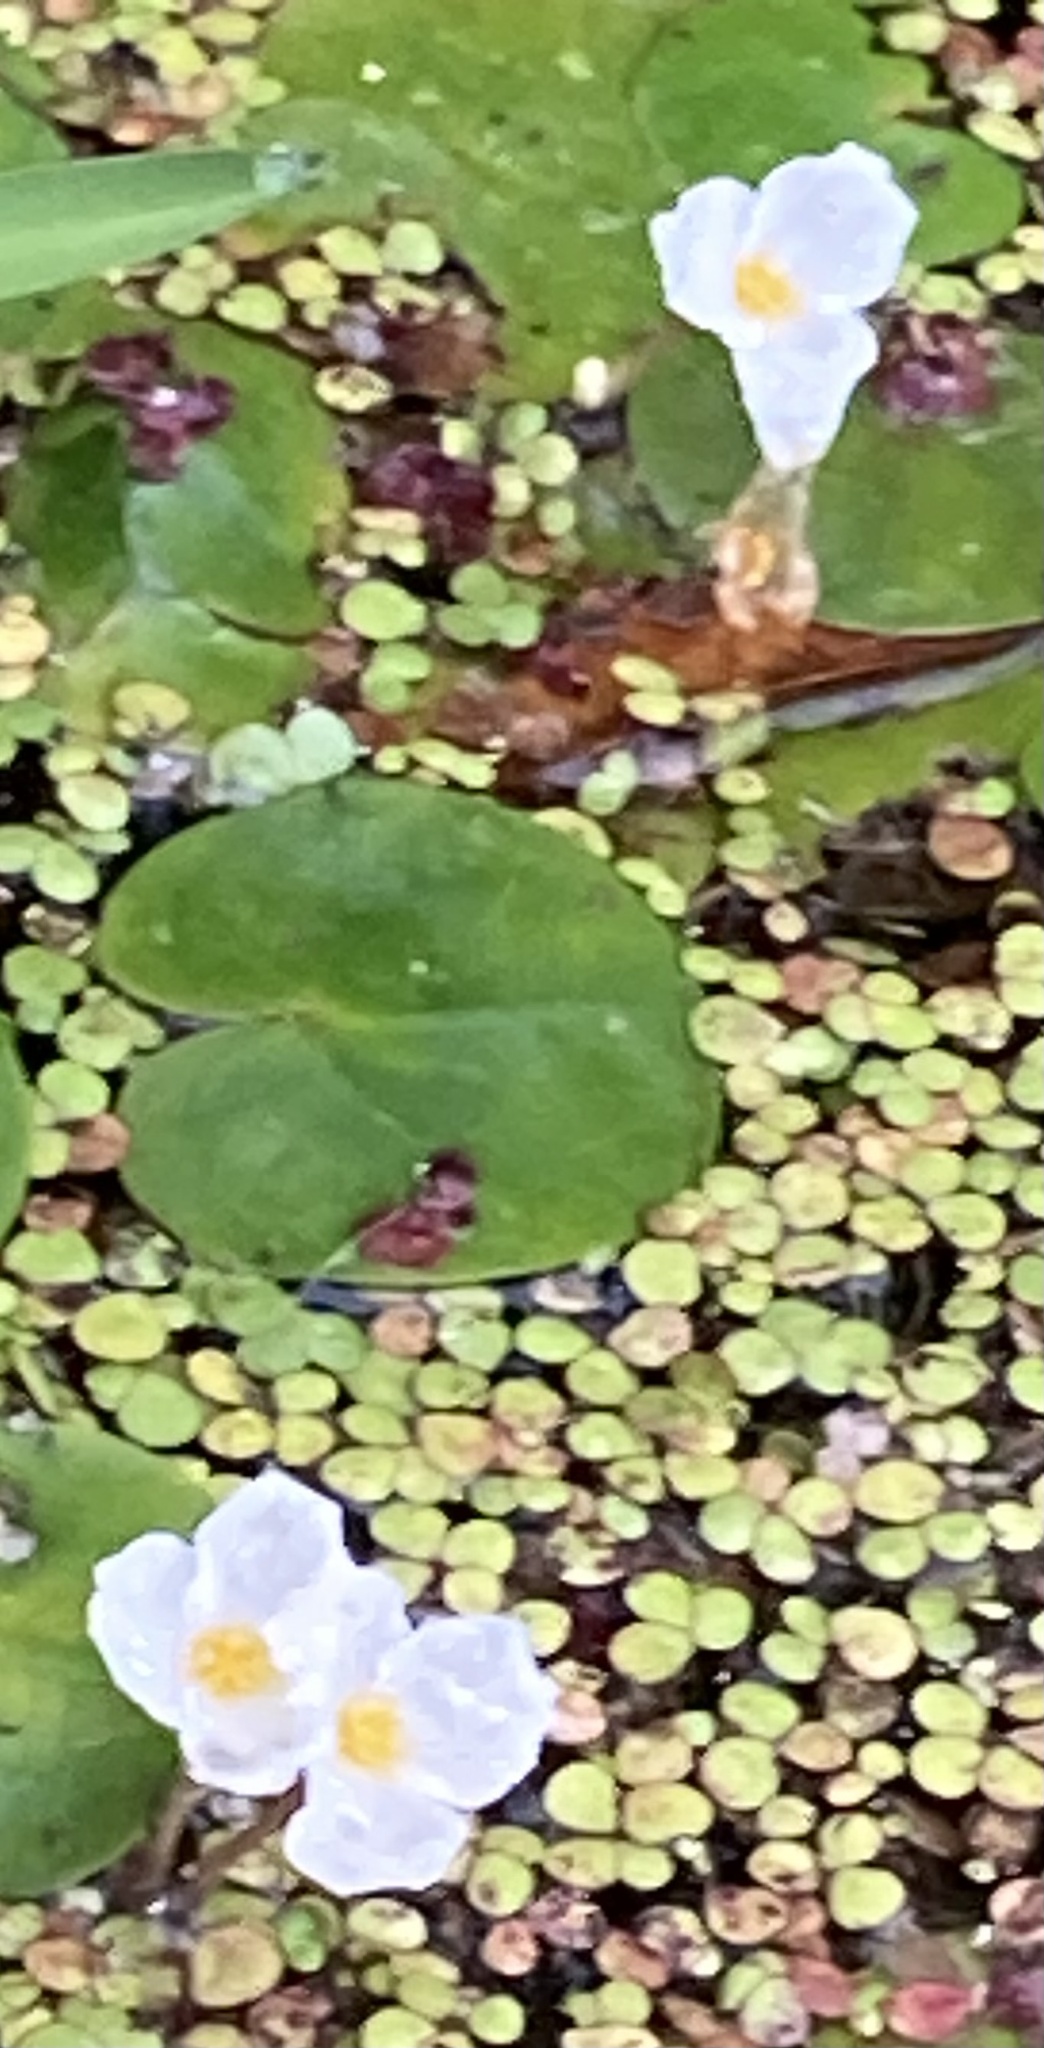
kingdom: Plantae
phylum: Tracheophyta
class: Liliopsida
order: Alismatales
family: Hydrocharitaceae
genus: Hydrocharis
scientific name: Hydrocharis morsus-ranae
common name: Frogbit
